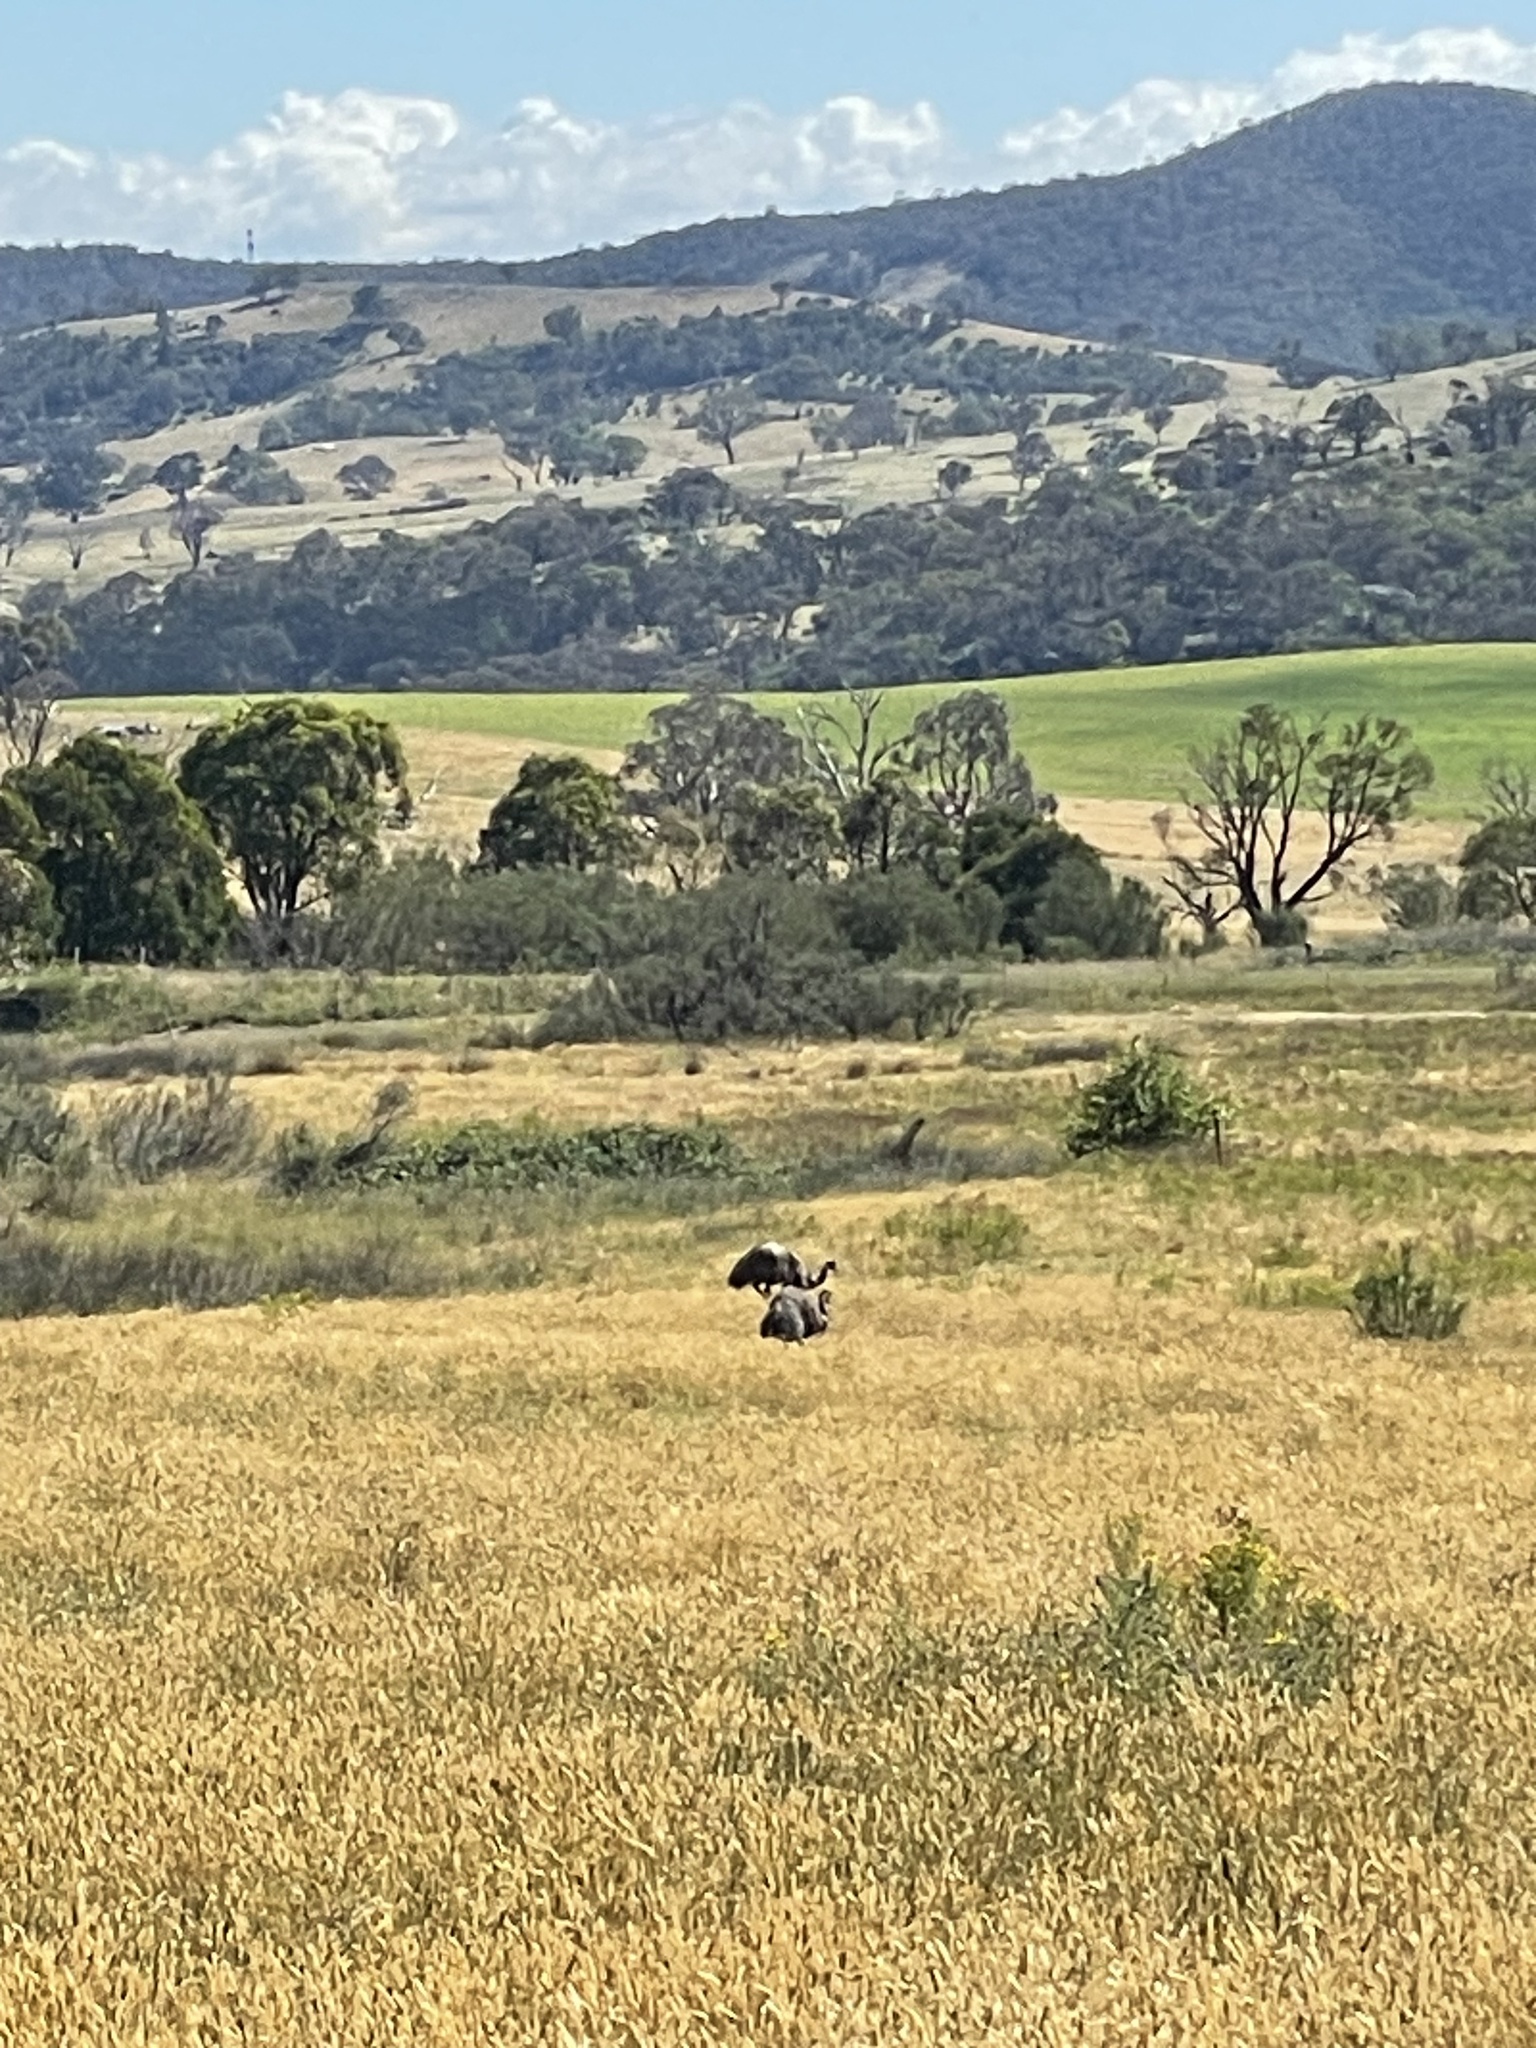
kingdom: Animalia
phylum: Chordata
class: Aves
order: Casuariiformes
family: Dromaiidae
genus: Dromaius
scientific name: Dromaius novaehollandiae
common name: Emu
